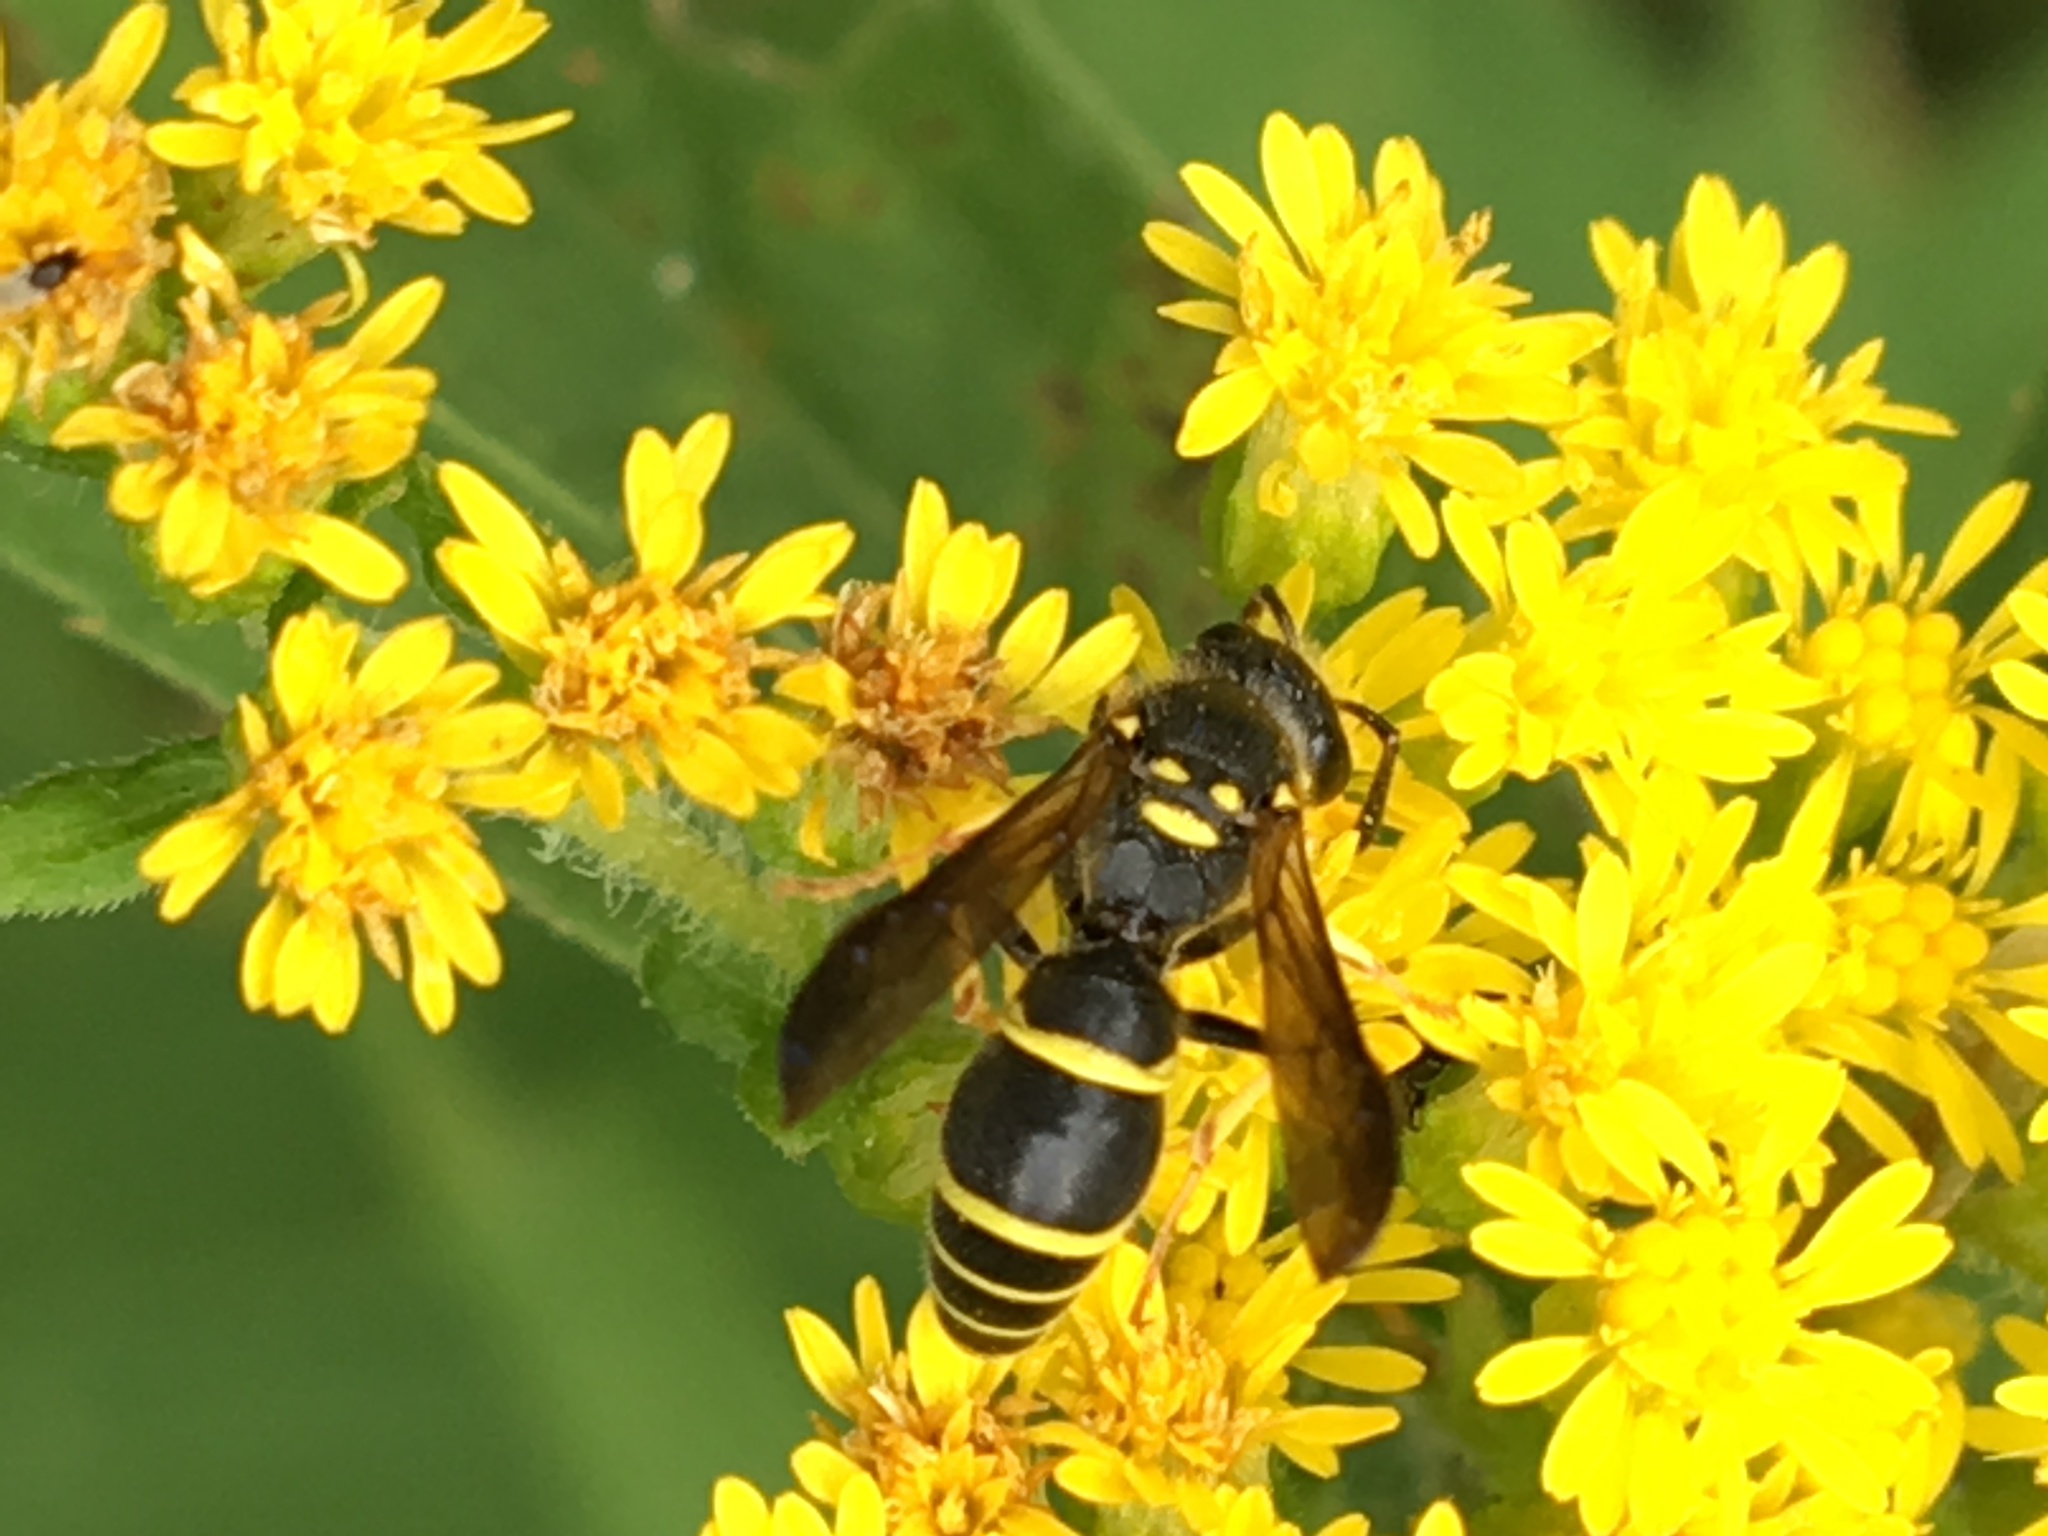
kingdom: Animalia
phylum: Arthropoda
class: Insecta
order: Hymenoptera
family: Vespidae
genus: Ancistrocerus
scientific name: Ancistrocerus adiabatus
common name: Bramble mason wasp
